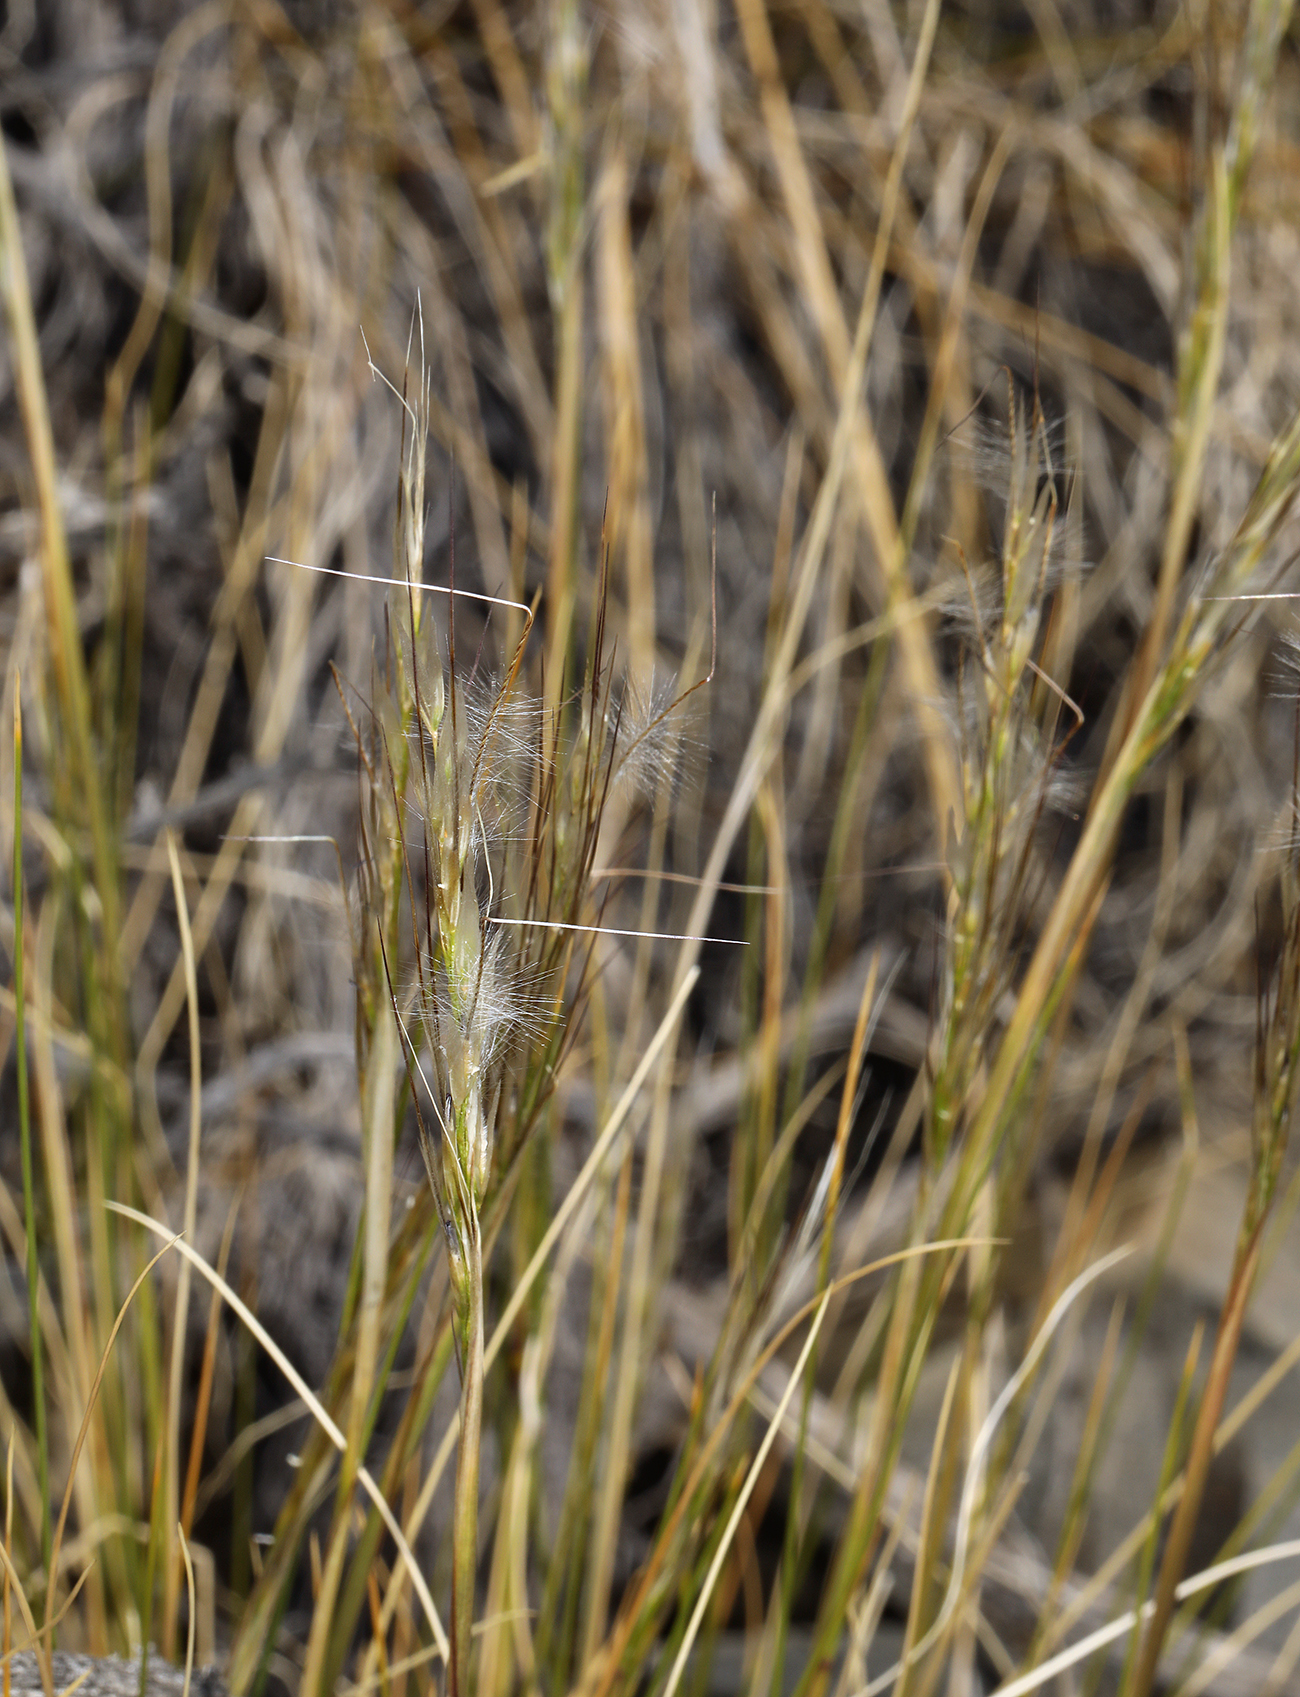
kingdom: Plantae
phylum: Tracheophyta
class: Liliopsida
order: Poales
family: Poaceae
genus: Pappostipa
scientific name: Pappostipa speciosa
